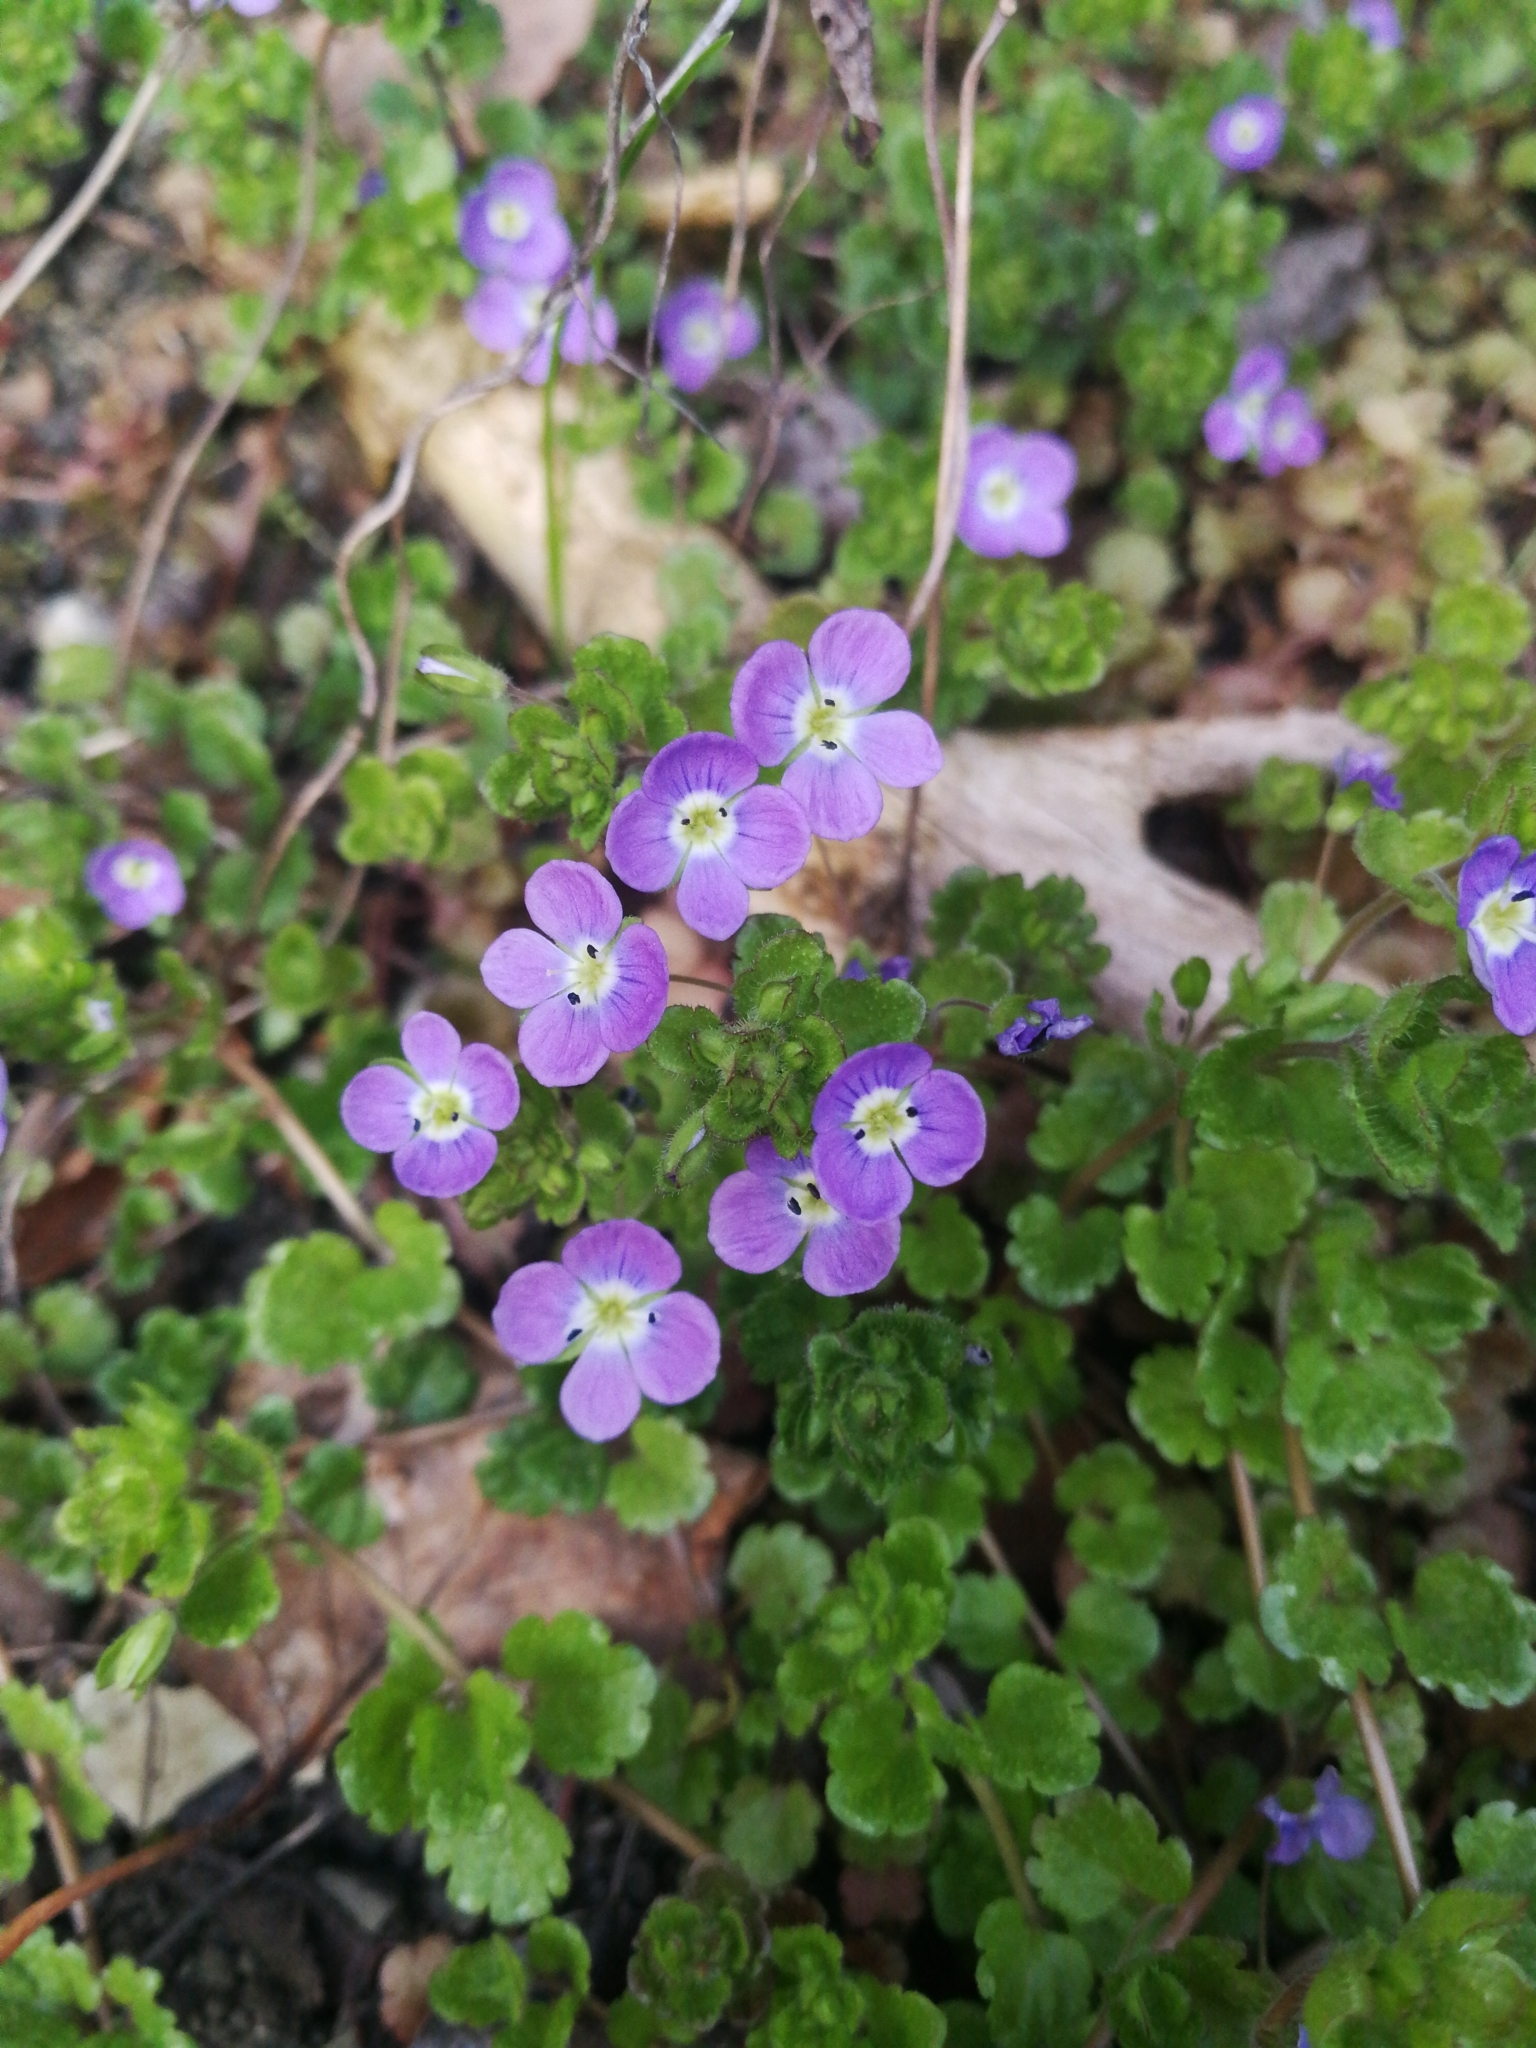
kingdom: Plantae
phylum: Tracheophyta
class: Magnoliopsida
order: Lamiales
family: Plantaginaceae
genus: Veronica
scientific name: Veronica filiformis
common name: Slender speedwell
